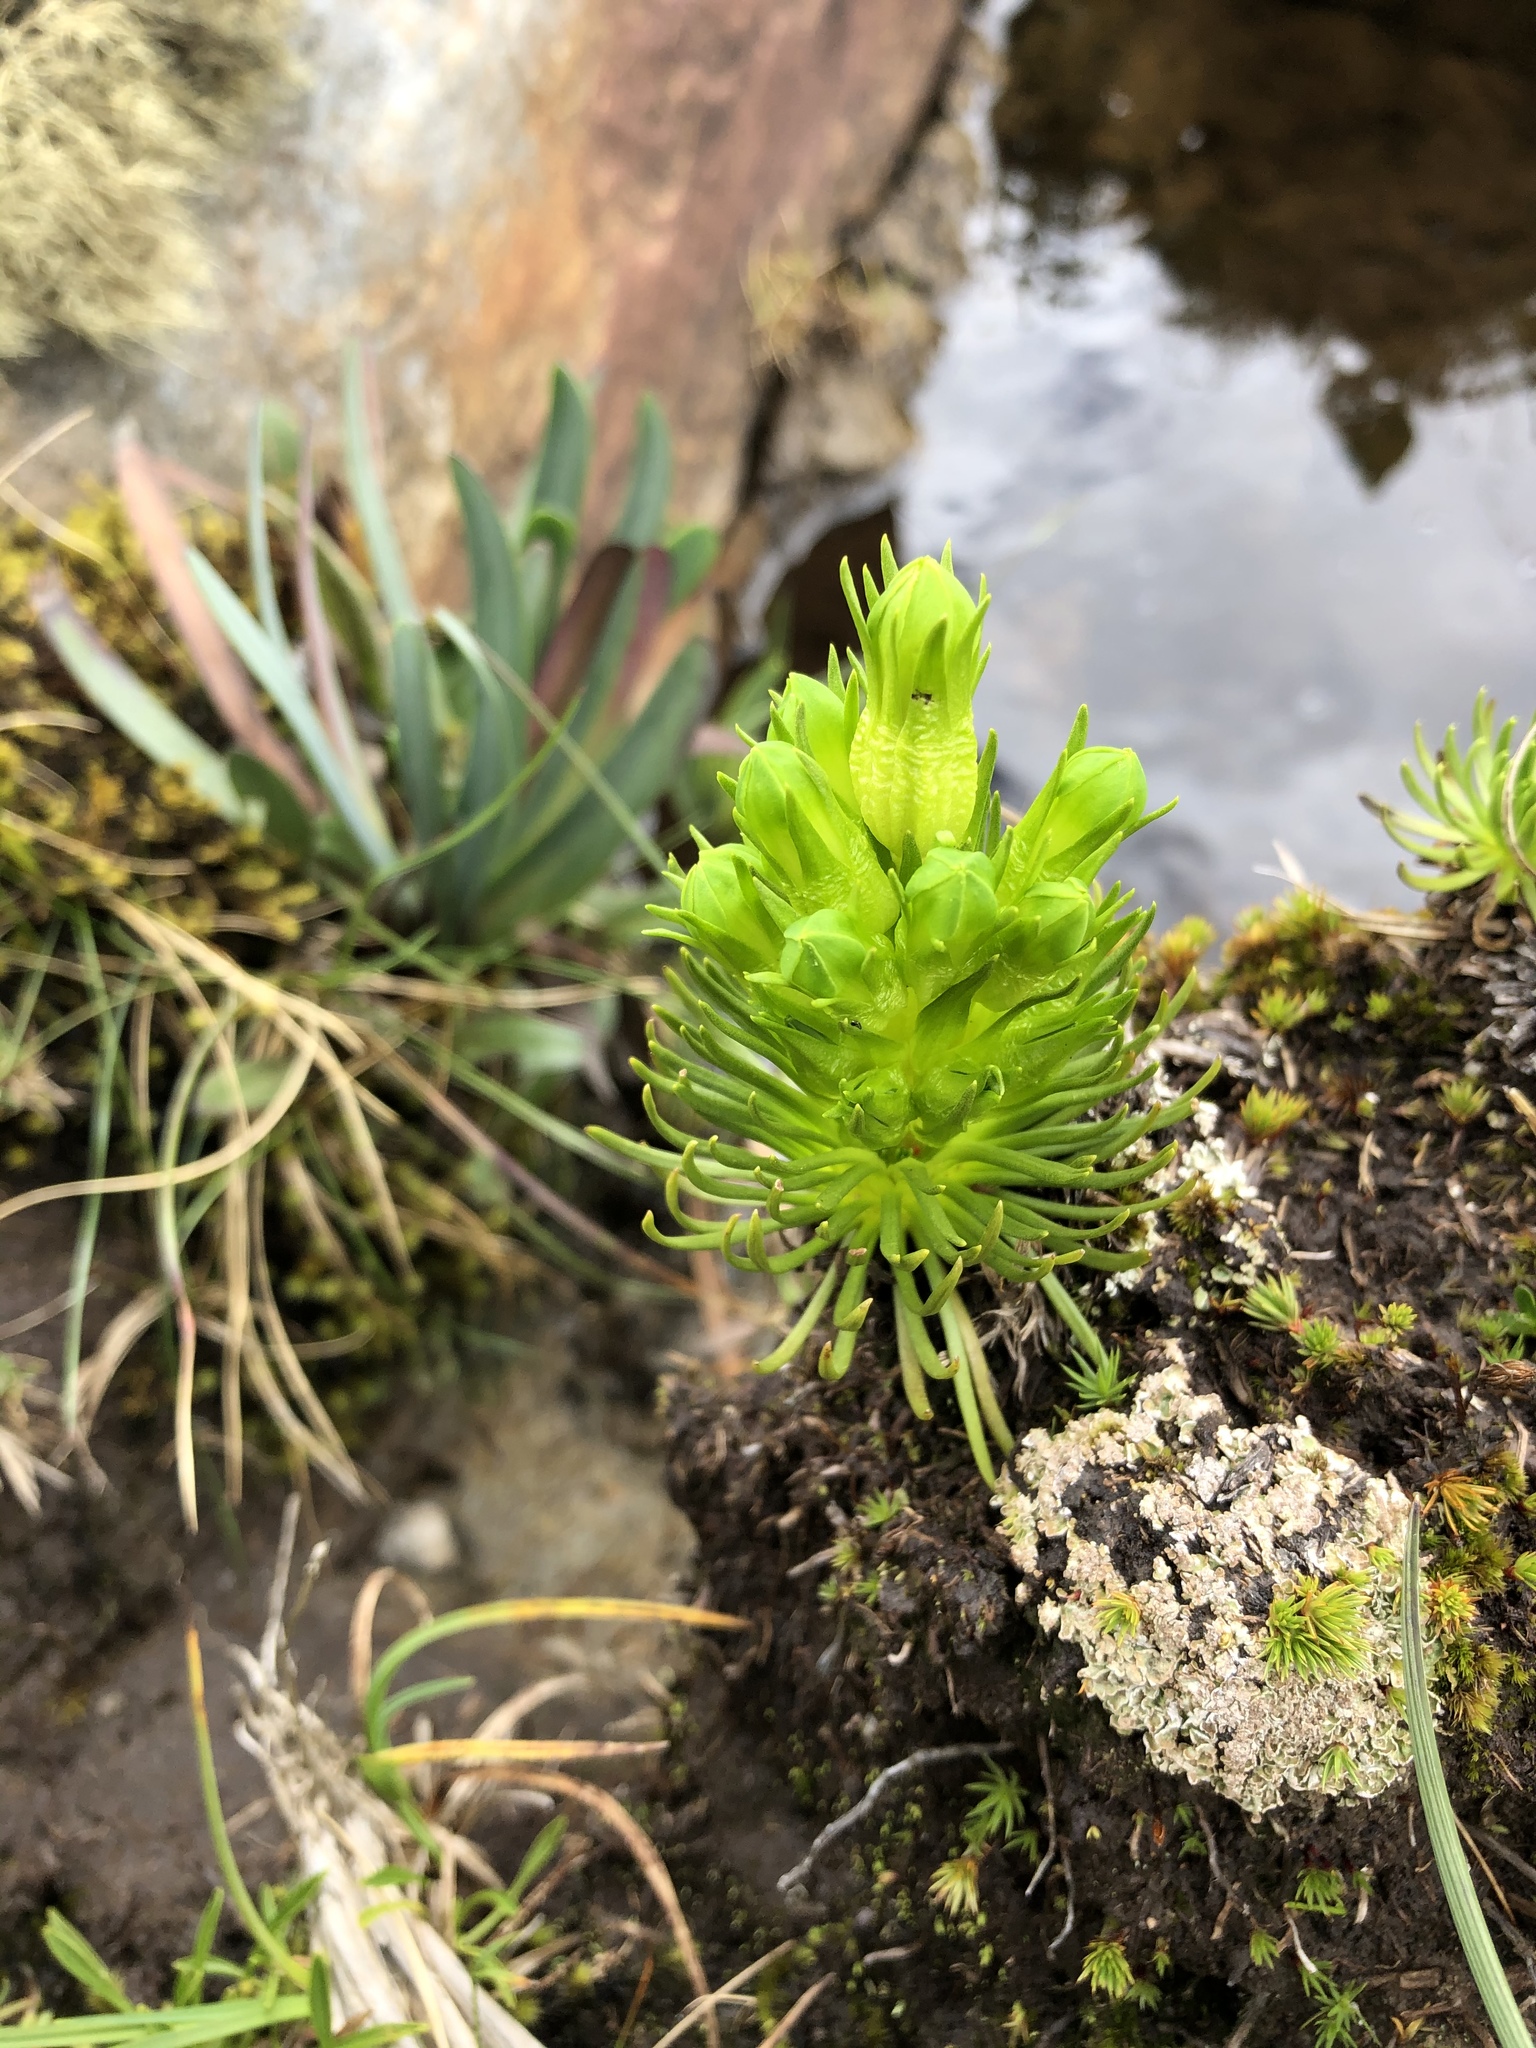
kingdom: Plantae
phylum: Tracheophyta
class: Magnoliopsida
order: Gentianales
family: Gentianaceae
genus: Gentianella
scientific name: Gentianella thyrsoidea
